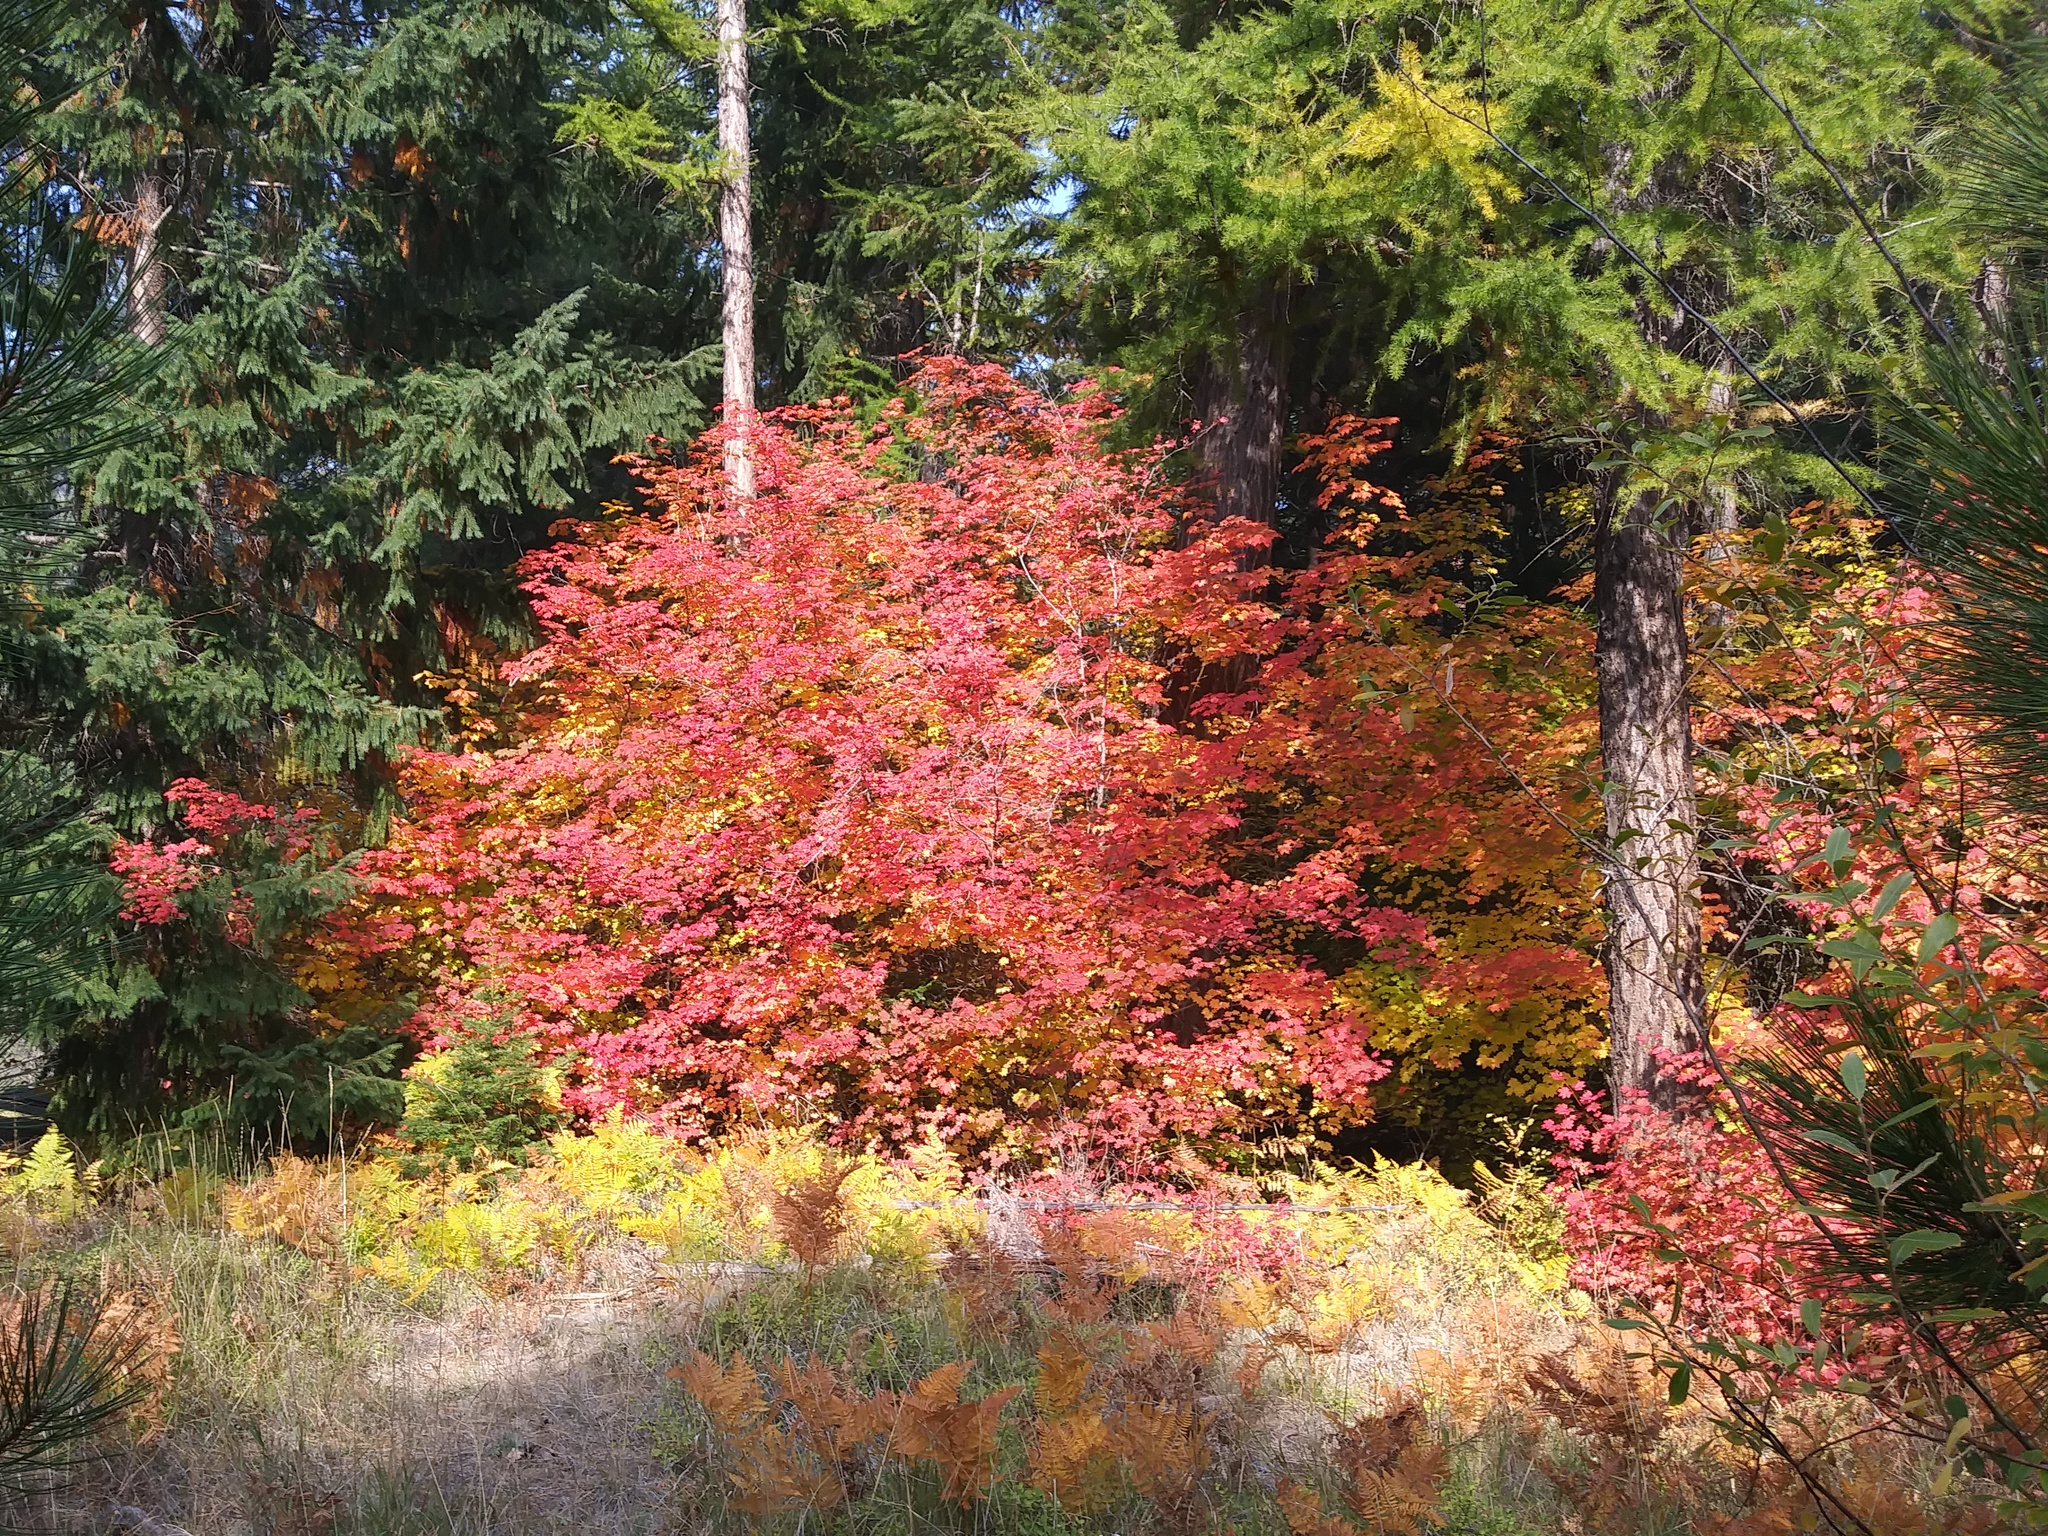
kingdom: Plantae
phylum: Tracheophyta
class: Magnoliopsida
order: Sapindales
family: Sapindaceae
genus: Acer
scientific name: Acer circinatum
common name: Vine maple
